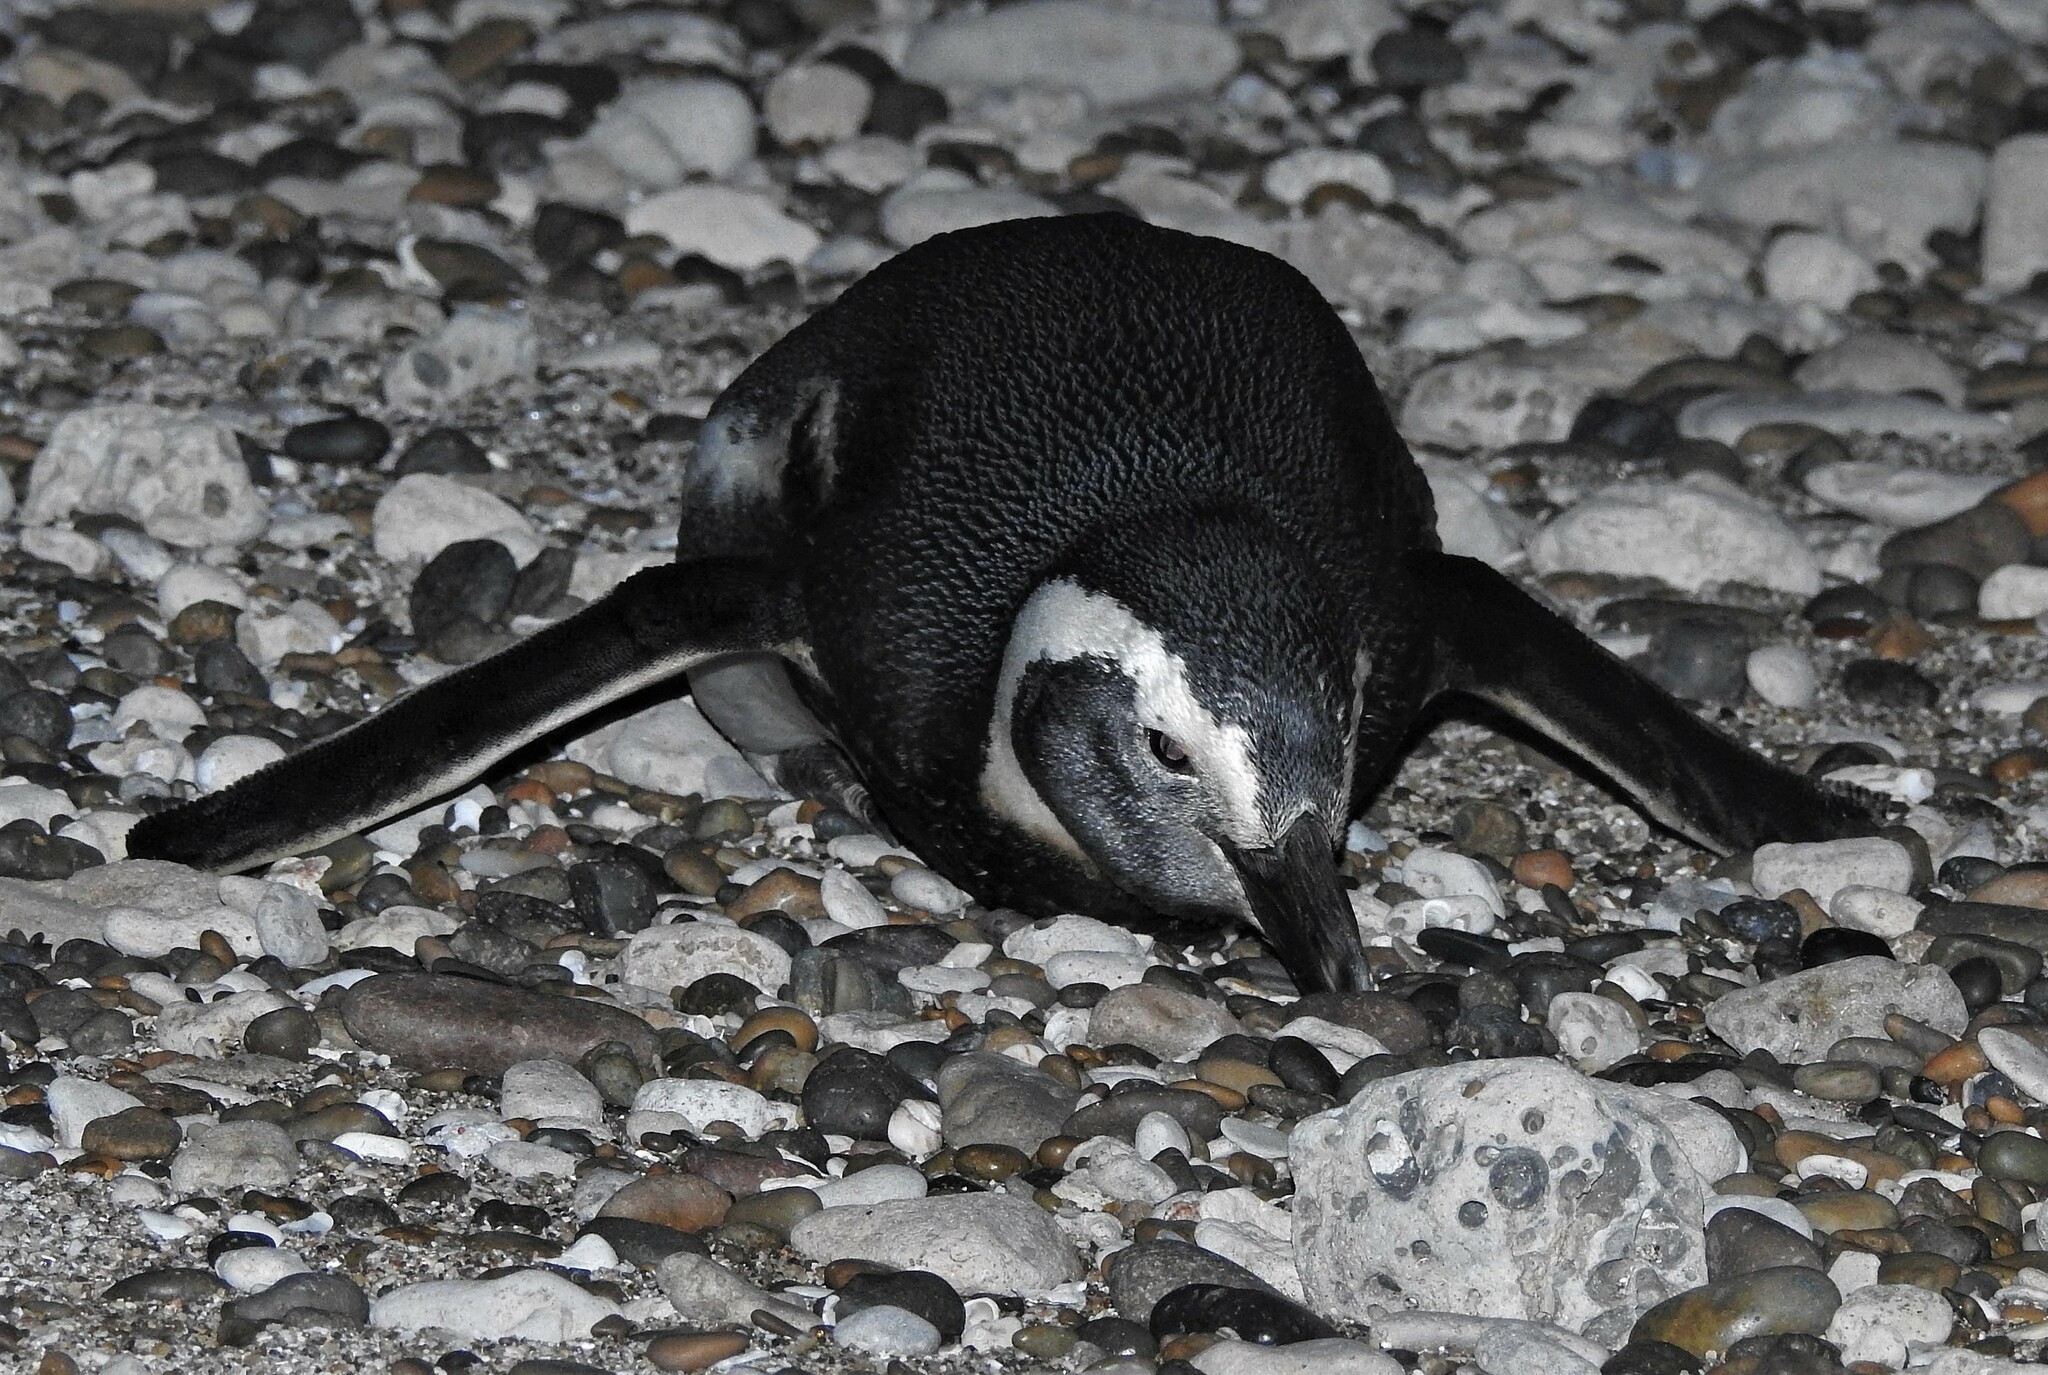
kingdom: Animalia
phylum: Chordata
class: Aves
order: Sphenisciformes
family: Spheniscidae
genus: Spheniscus
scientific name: Spheniscus magellanicus
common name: Magellanic penguin
